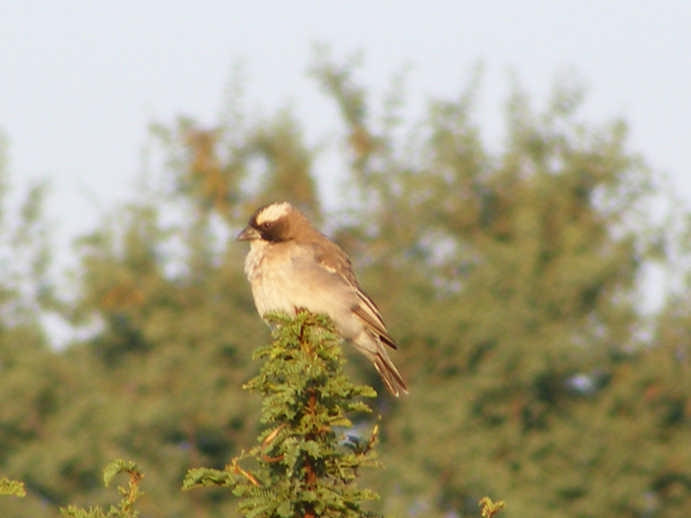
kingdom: Animalia
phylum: Chordata
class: Aves
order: Passeriformes
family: Passeridae
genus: Plocepasser
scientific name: Plocepasser mahali
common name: White-browed sparrow-weaver
